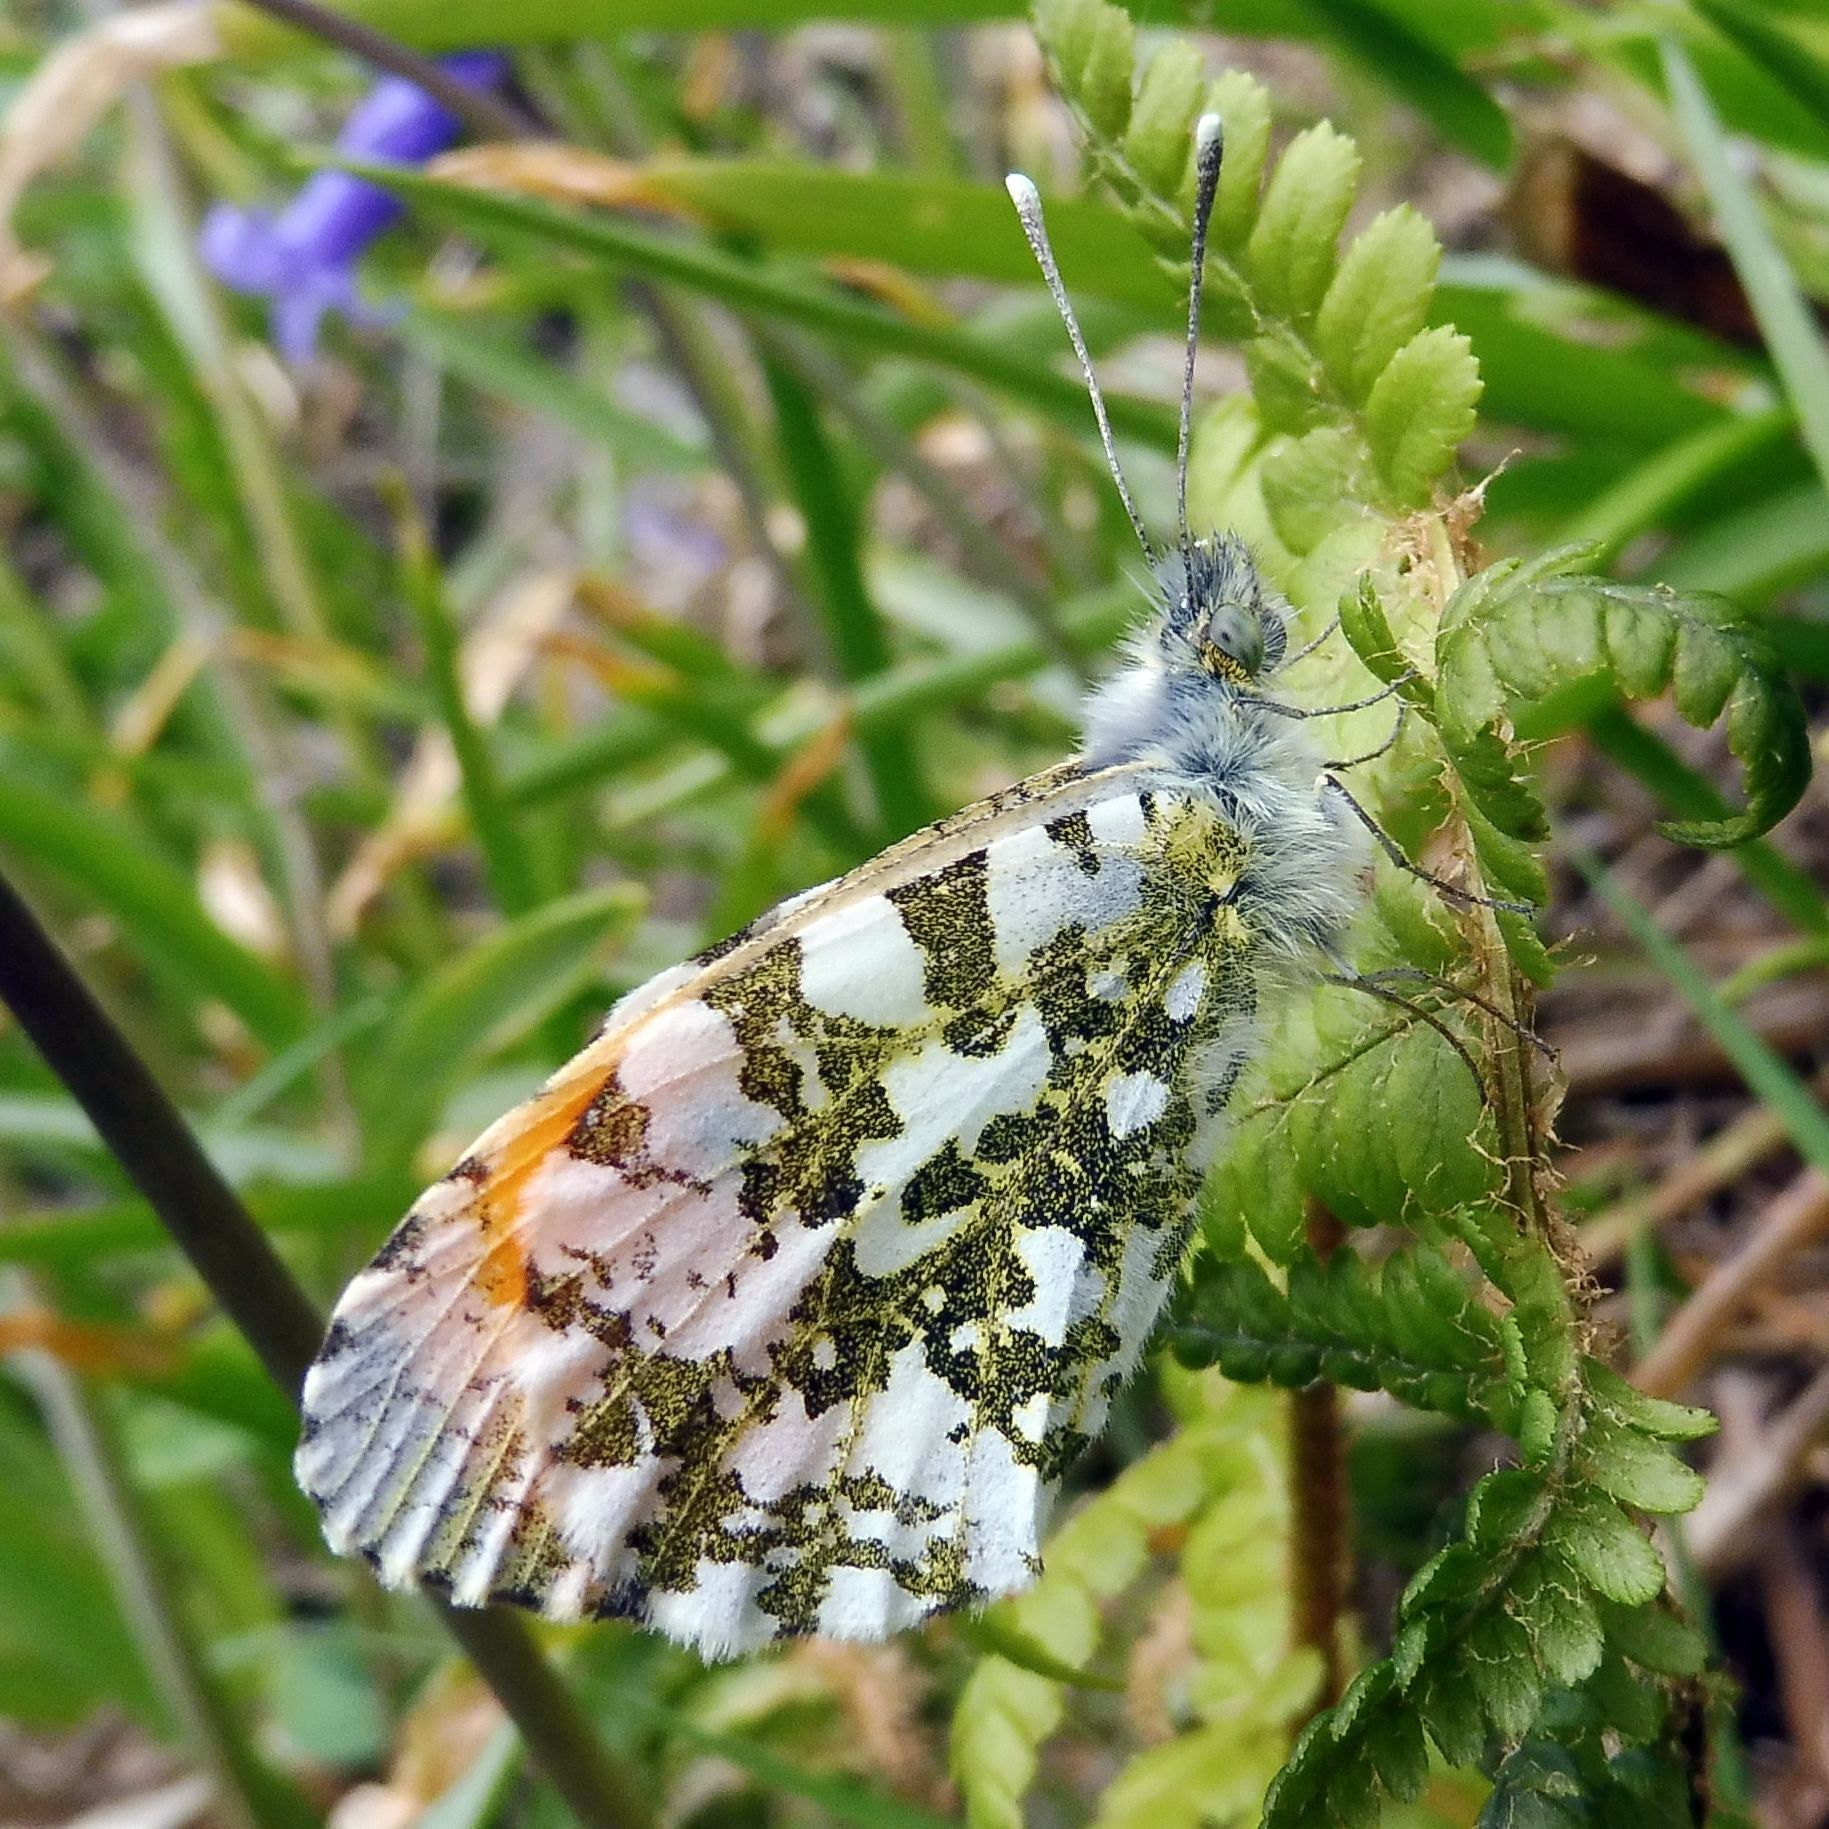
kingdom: Animalia
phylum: Arthropoda
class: Insecta
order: Lepidoptera
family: Pieridae
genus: Anthocharis
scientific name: Anthocharis cardamines
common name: Orange-tip
